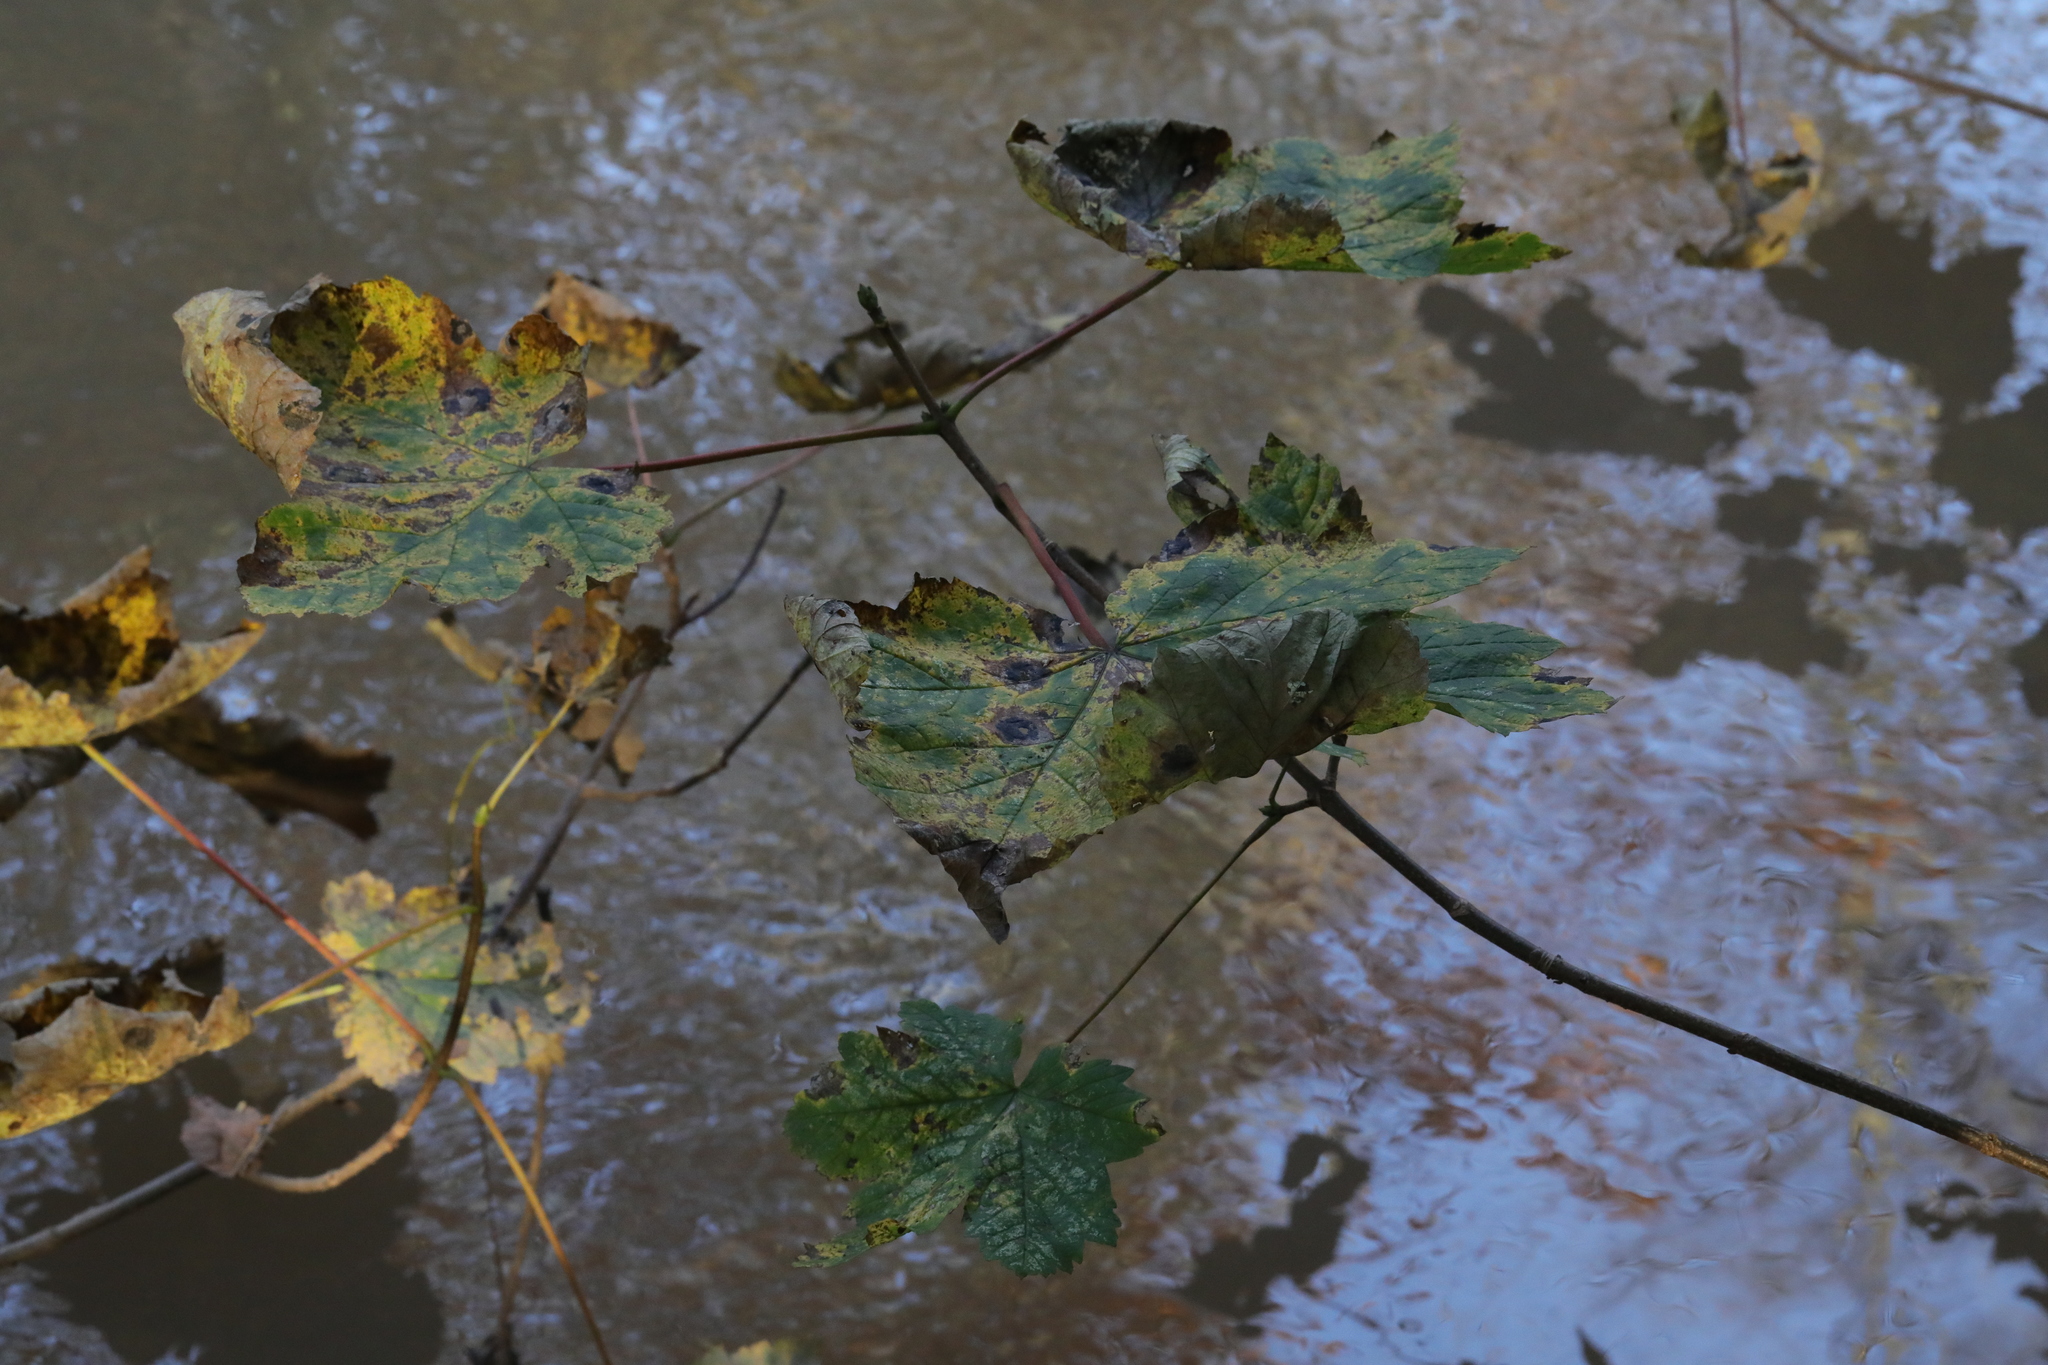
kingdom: Plantae
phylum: Tracheophyta
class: Magnoliopsida
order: Sapindales
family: Sapindaceae
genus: Acer
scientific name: Acer pseudoplatanus
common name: Sycamore
